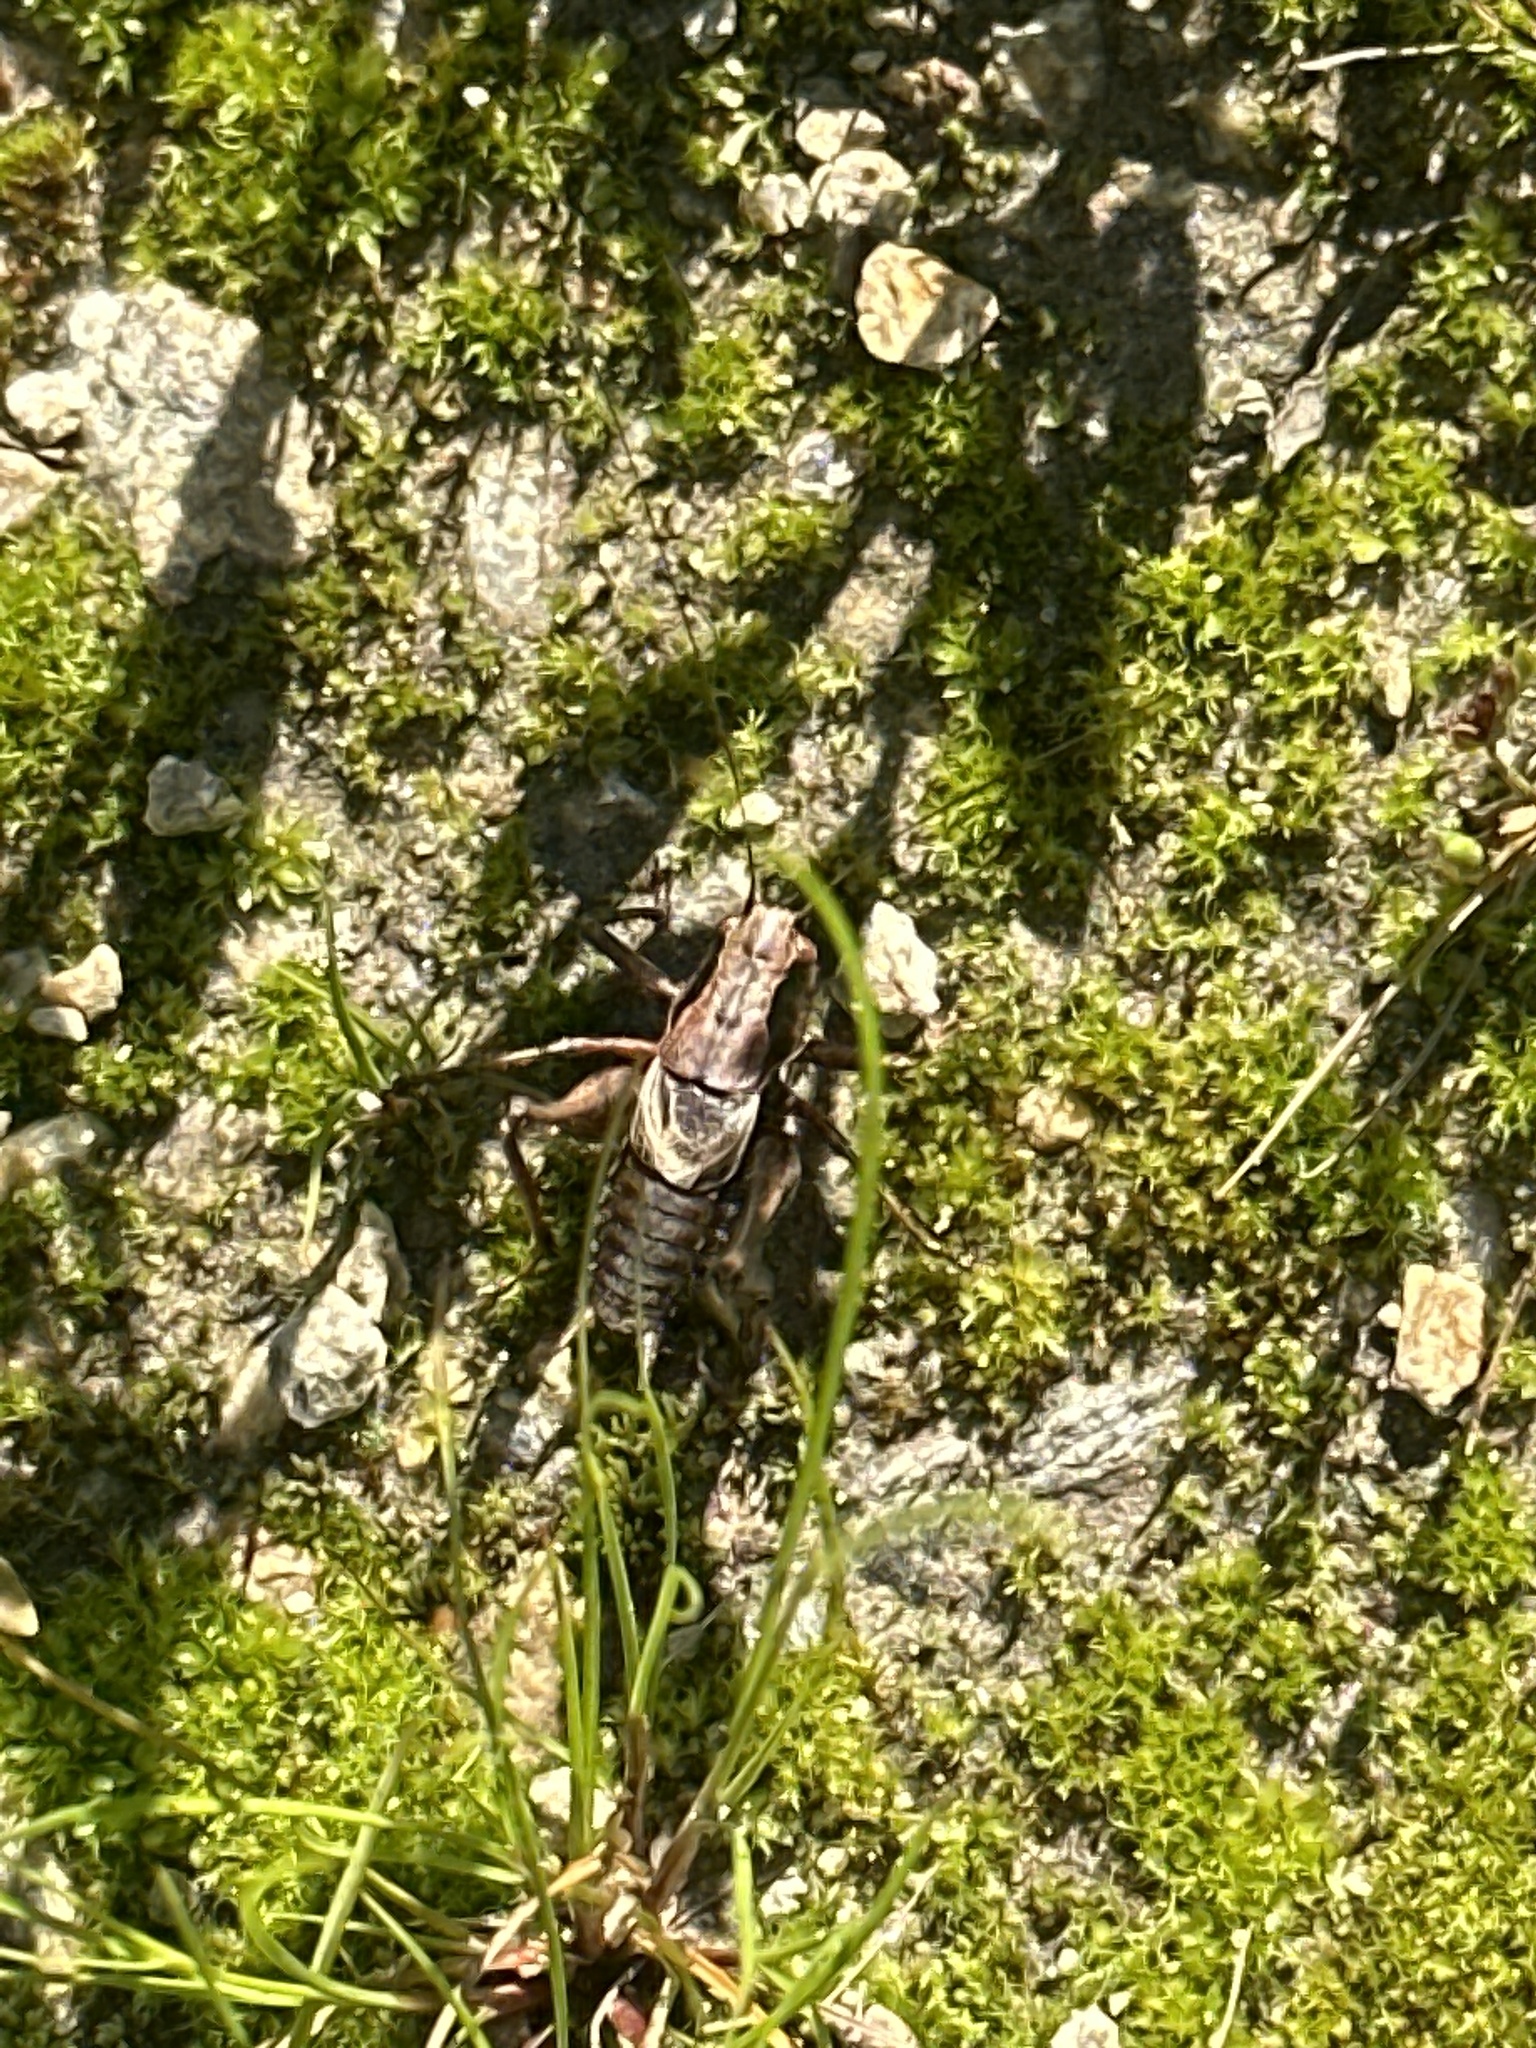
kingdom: Animalia
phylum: Arthropoda
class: Insecta
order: Orthoptera
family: Tettigoniidae
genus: Pholidoptera
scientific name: Pholidoptera griseoaptera
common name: Dark bush-cricket
